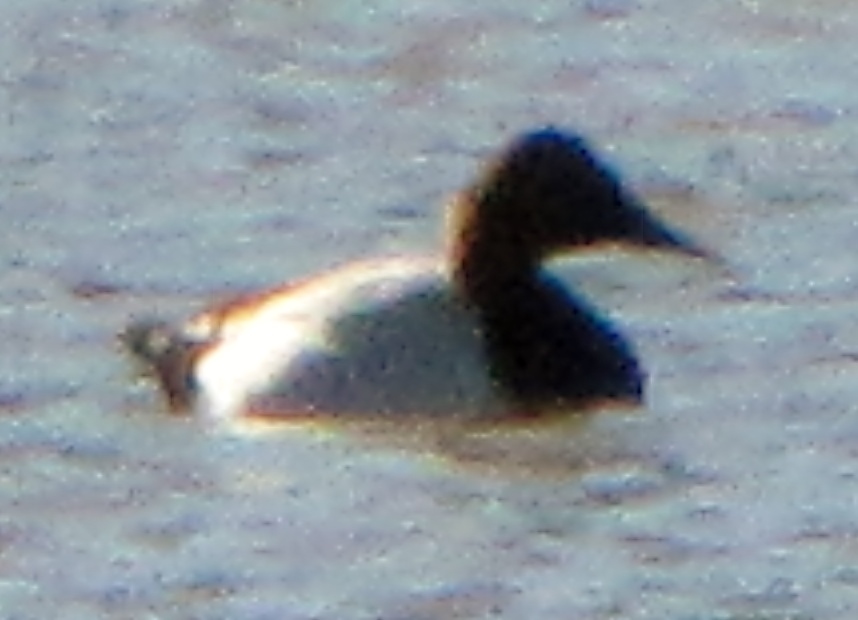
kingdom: Animalia
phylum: Chordata
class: Aves
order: Anseriformes
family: Anatidae
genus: Aythya
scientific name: Aythya valisineria
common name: Canvasback
